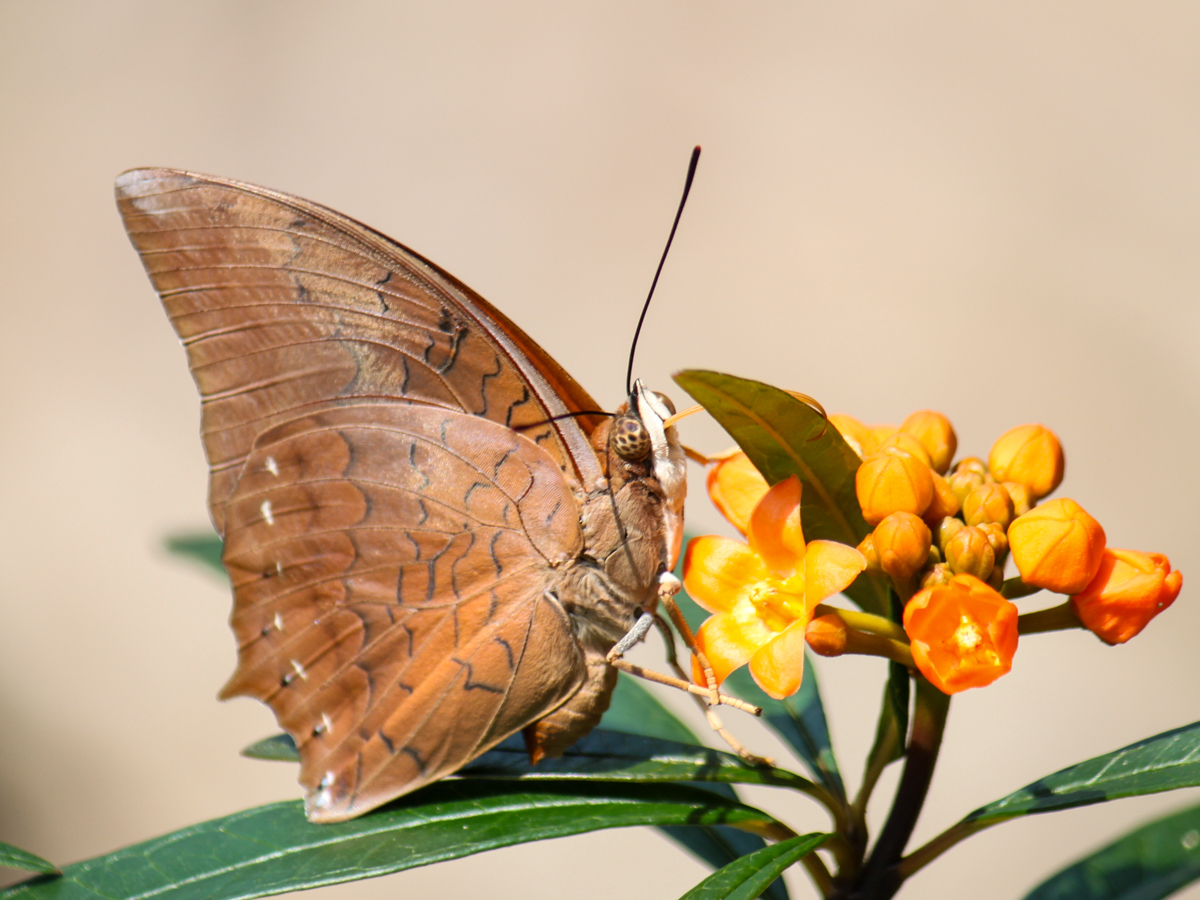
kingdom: Animalia
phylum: Arthropoda
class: Insecta
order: Lepidoptera
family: Nymphalidae
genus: Charaxes
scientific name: Charaxes bernardus
